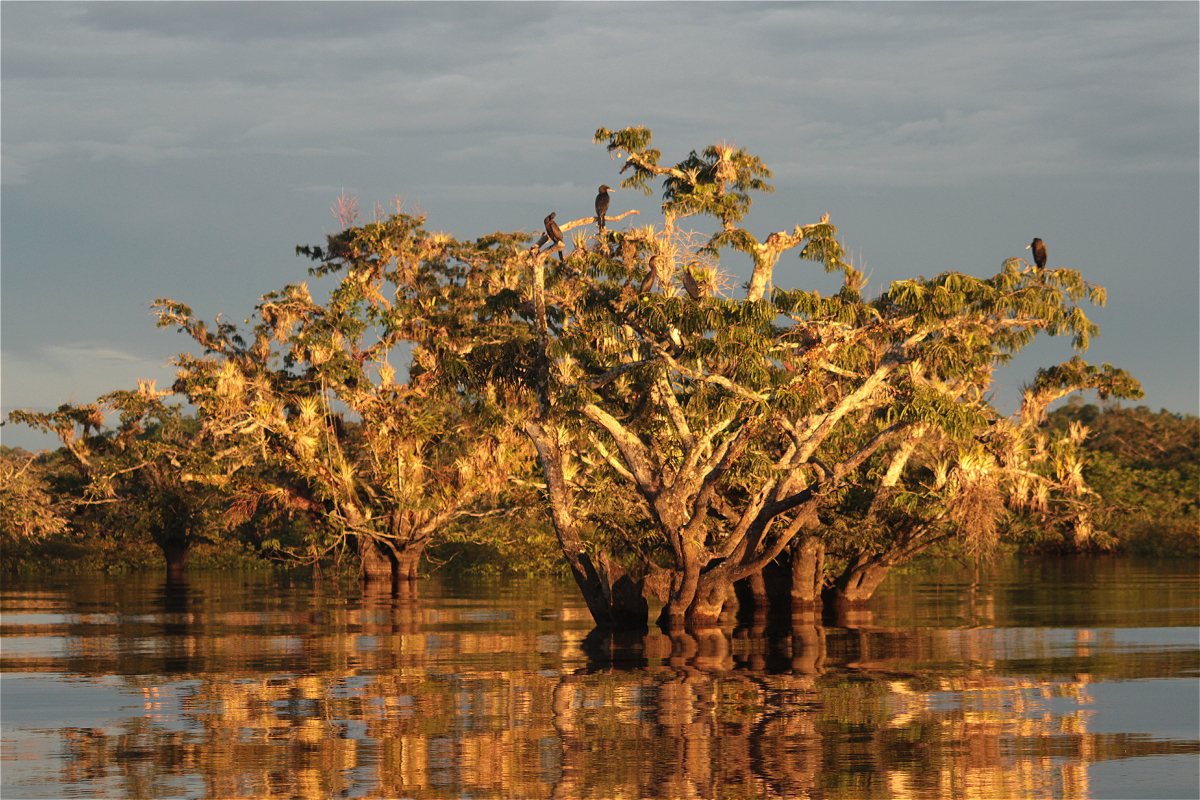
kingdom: Plantae
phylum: Tracheophyta
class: Magnoliopsida
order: Fabales
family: Fabaceae
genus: Macrolobium
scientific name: Macrolobium acaciifolium
